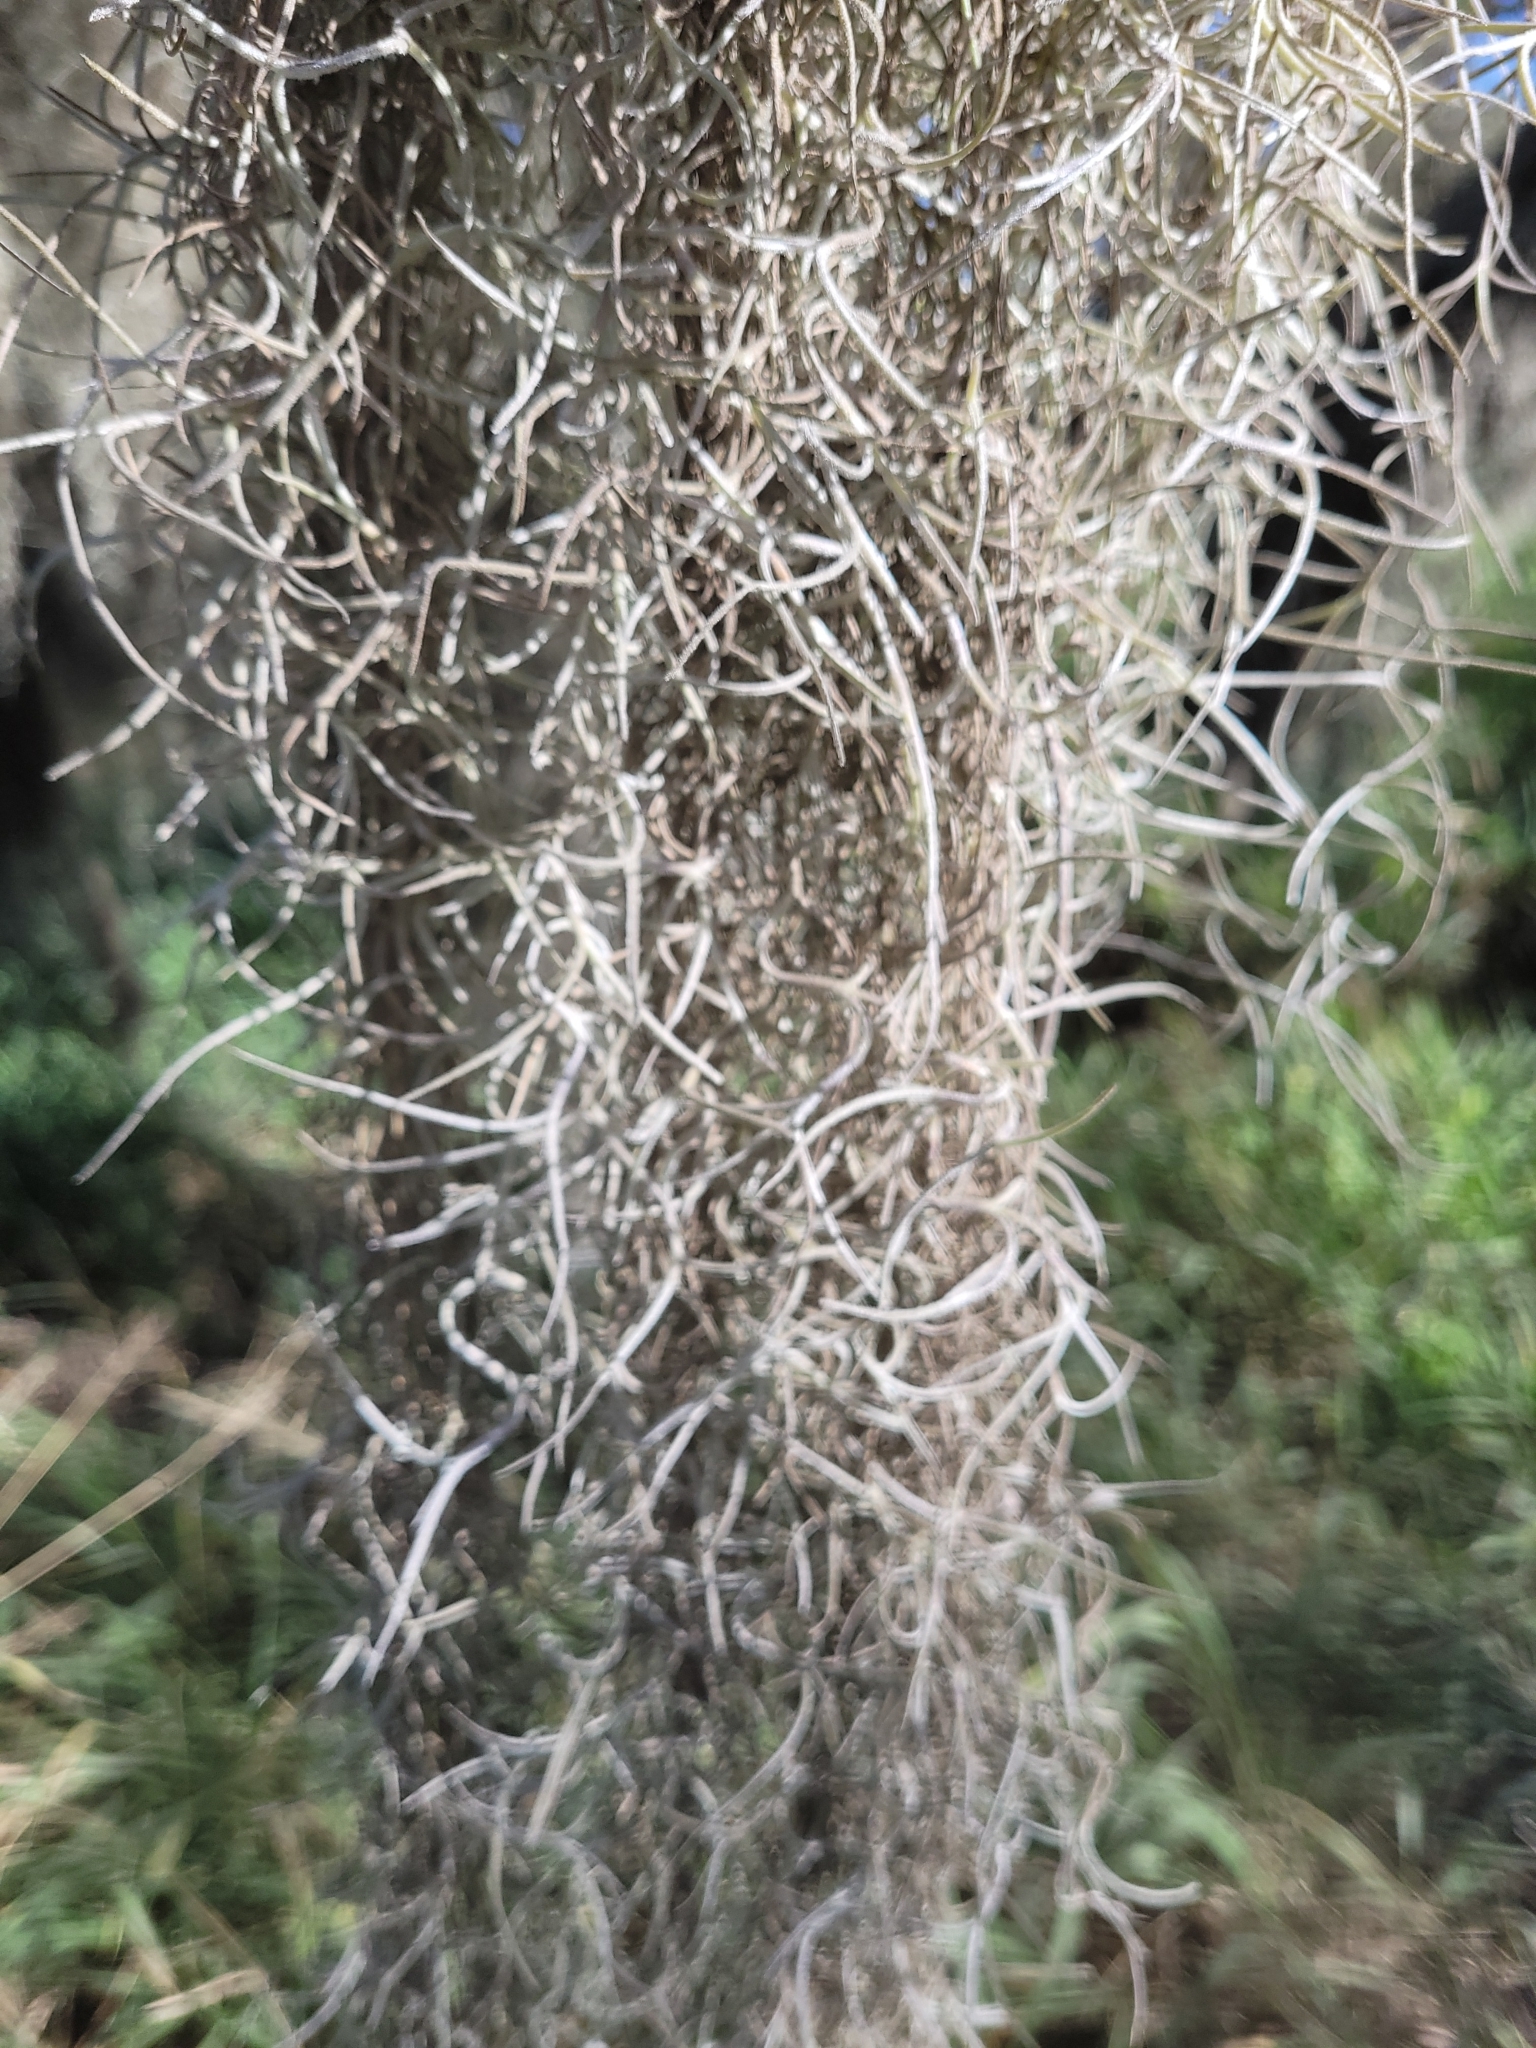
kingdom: Plantae
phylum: Tracheophyta
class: Liliopsida
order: Poales
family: Bromeliaceae
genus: Tillandsia
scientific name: Tillandsia usneoides
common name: Spanish moss
